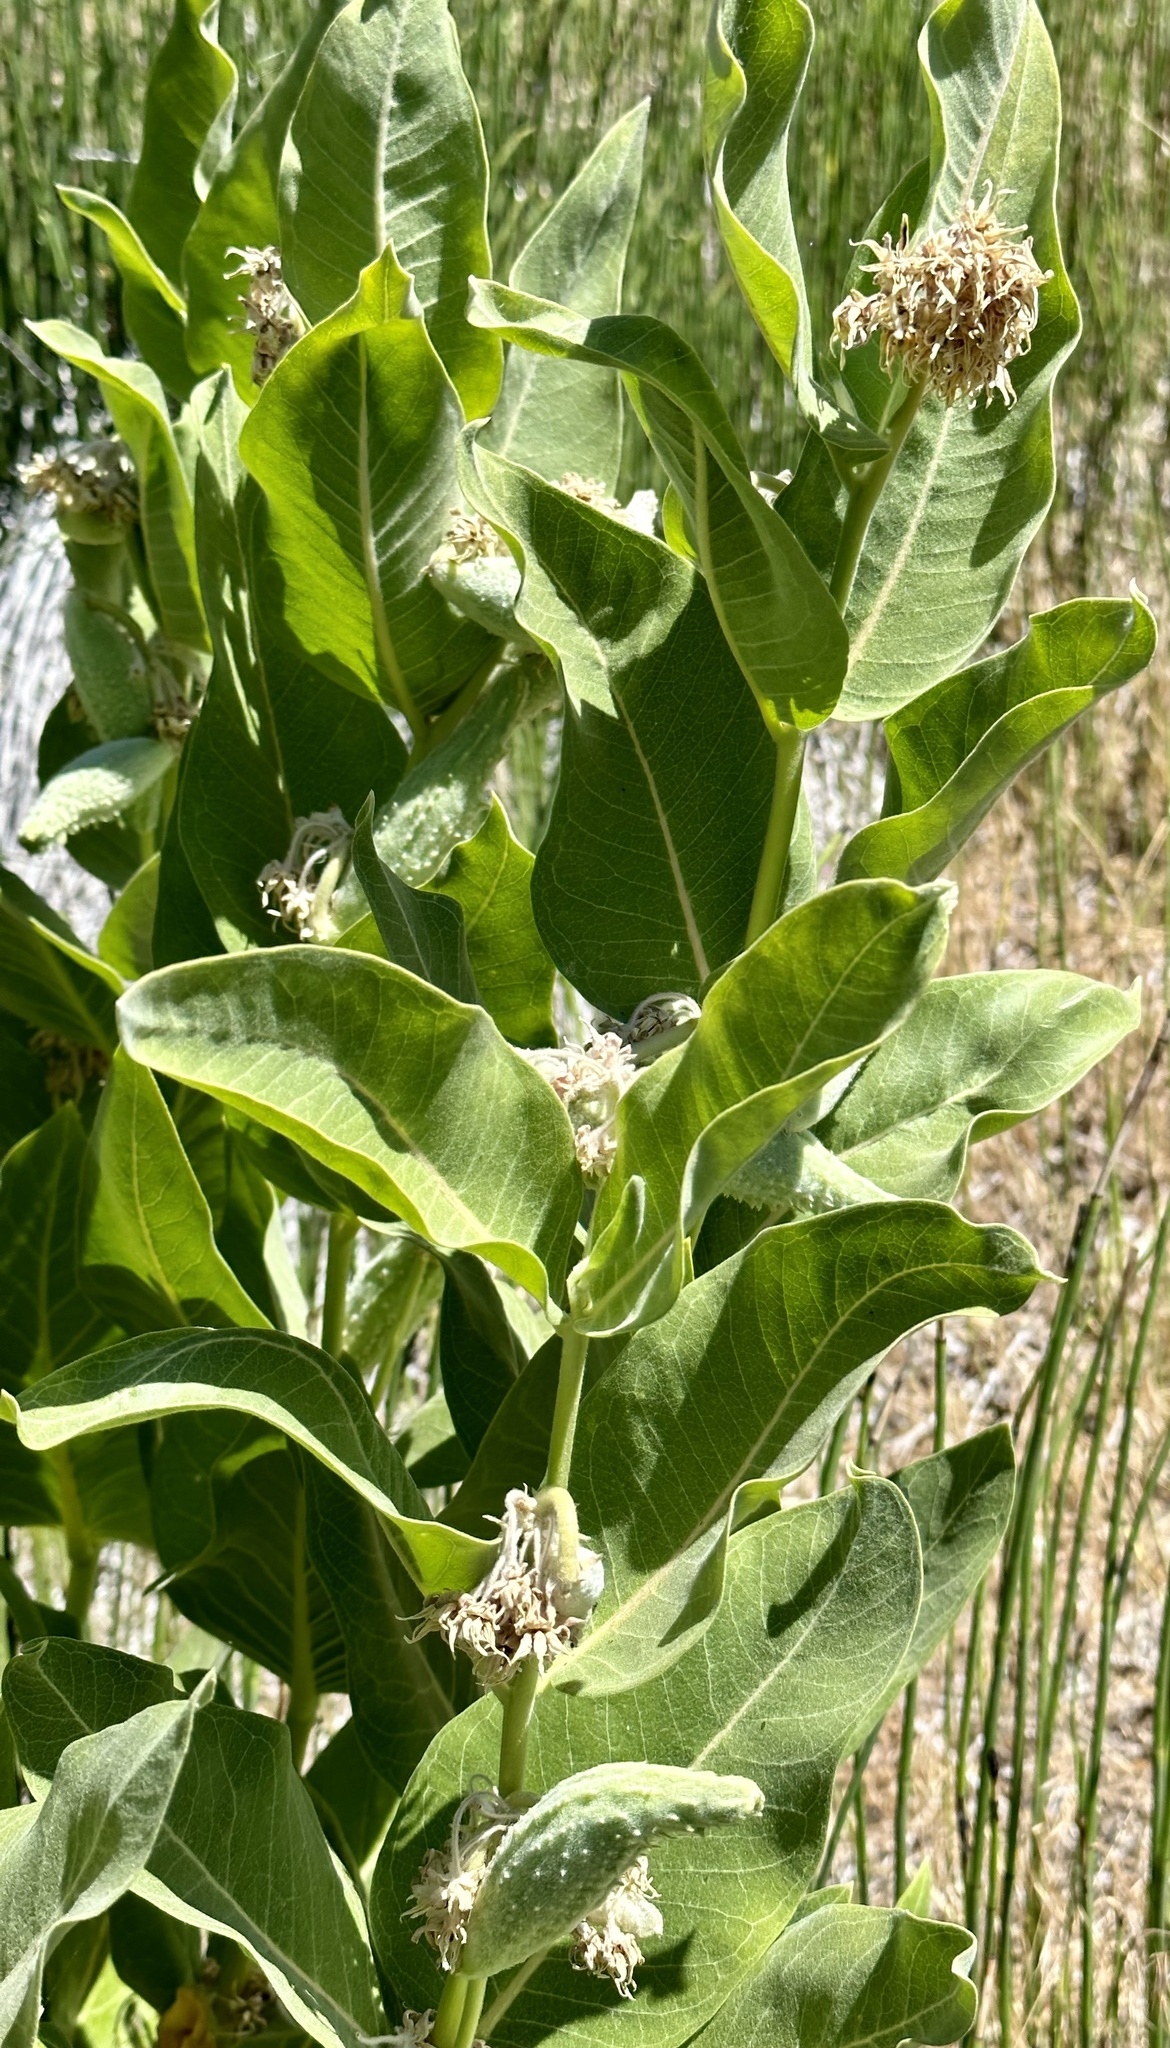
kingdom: Plantae
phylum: Tracheophyta
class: Magnoliopsida
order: Gentianales
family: Apocynaceae
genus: Asclepias
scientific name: Asclepias speciosa
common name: Showy milkweed
